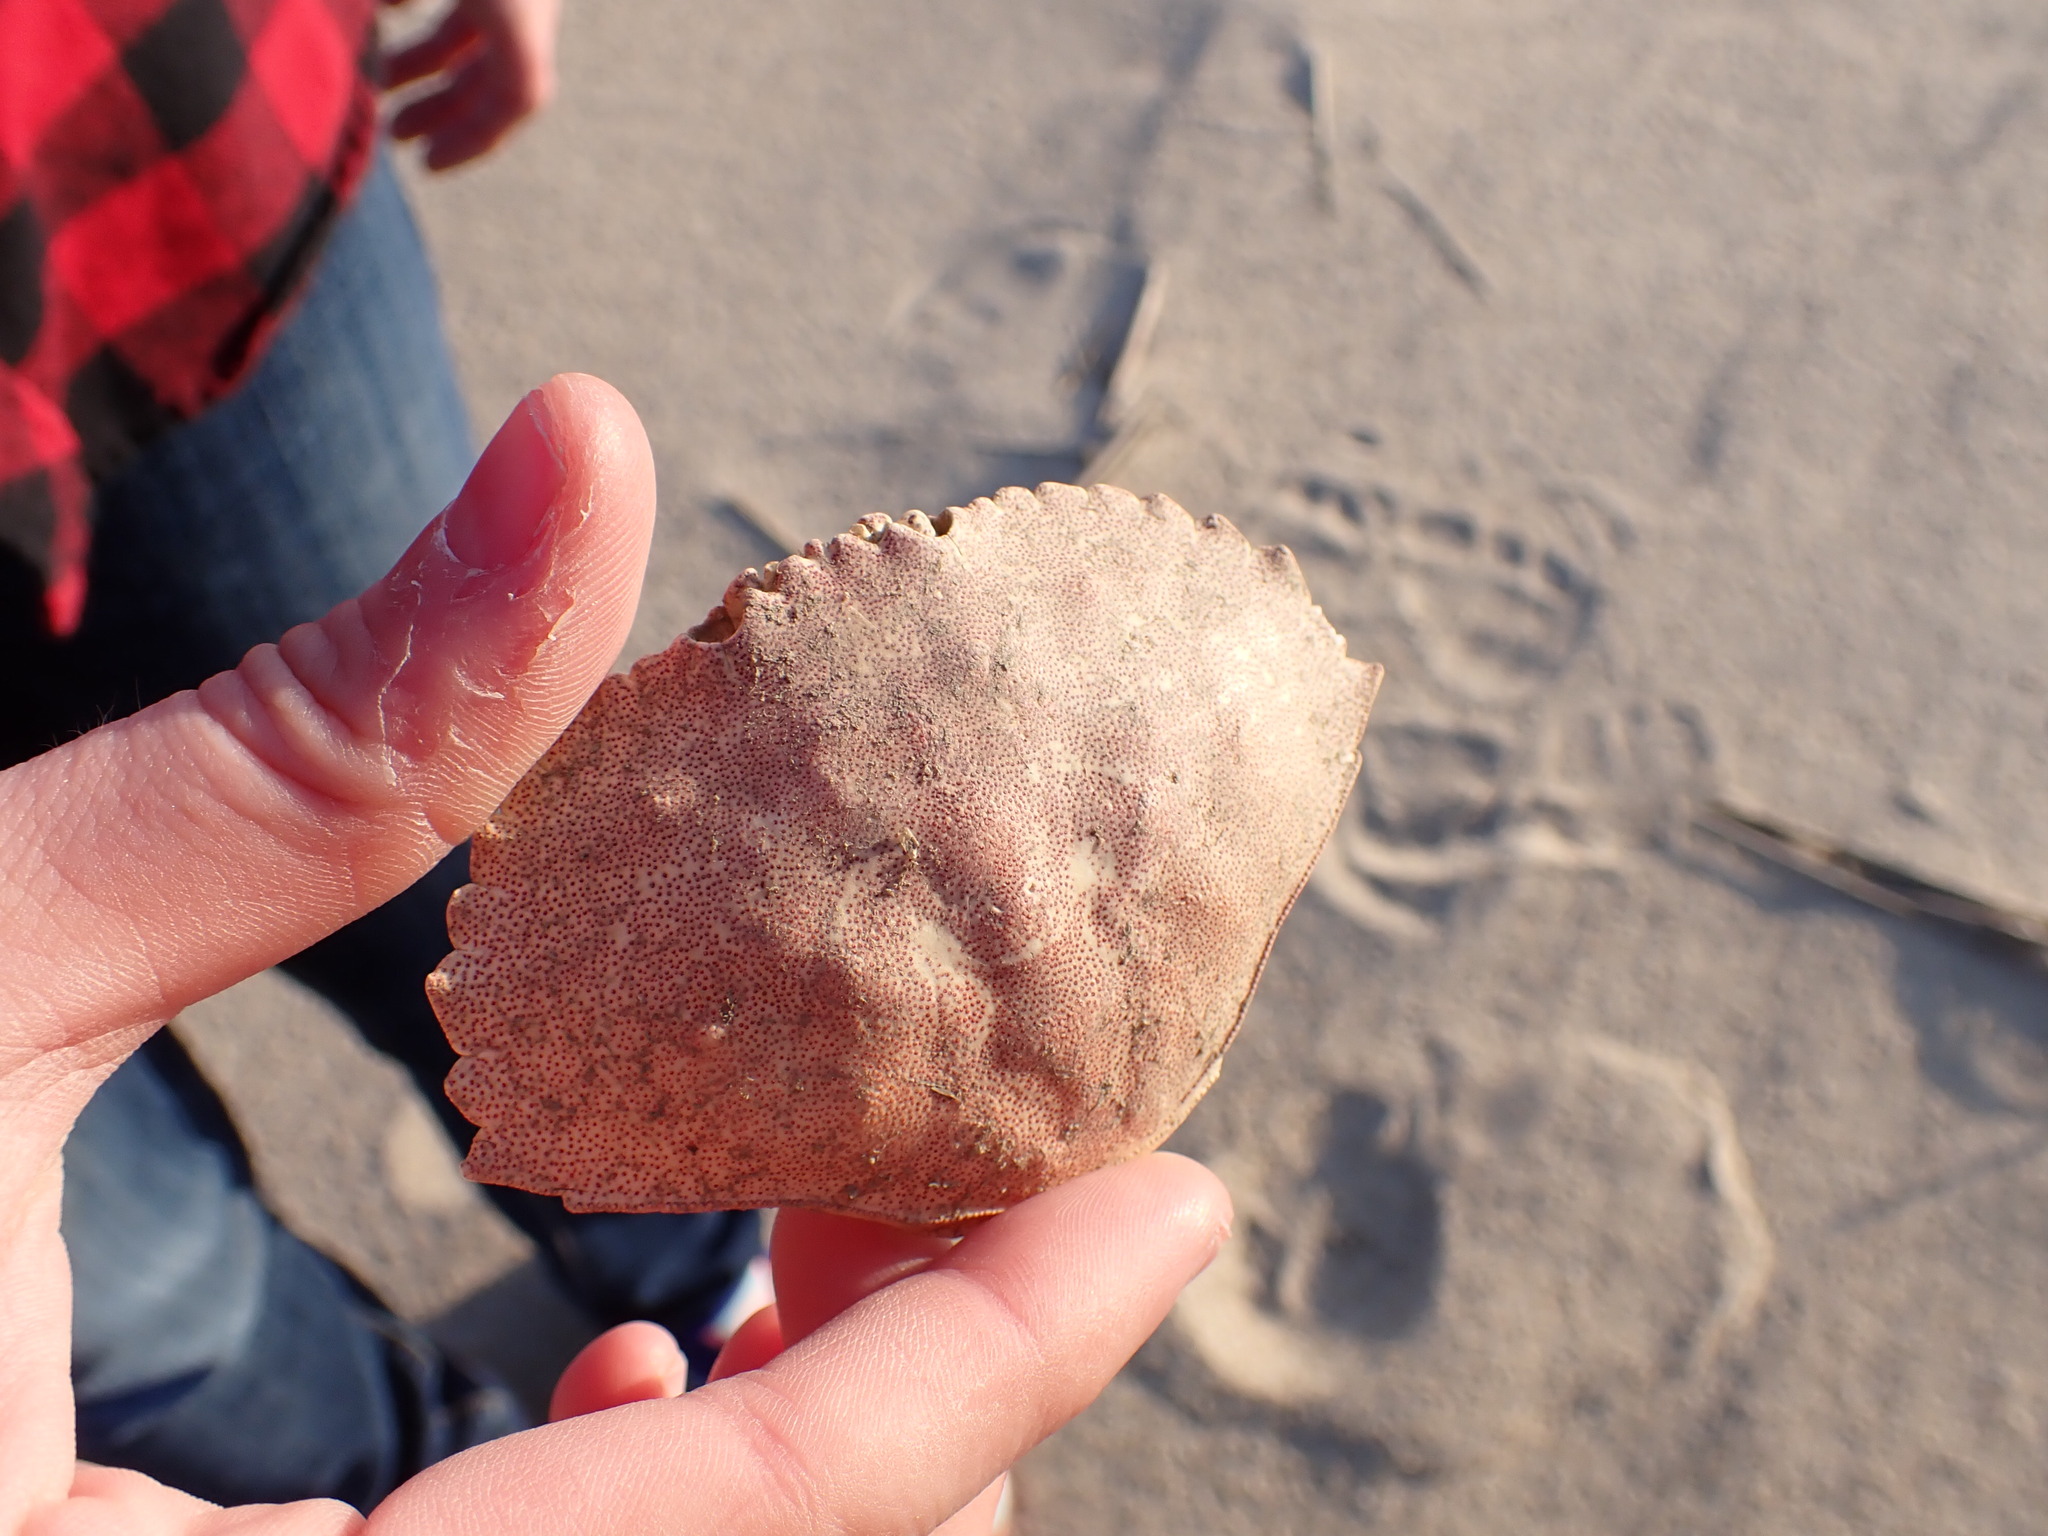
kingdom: Animalia
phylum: Arthropoda
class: Malacostraca
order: Decapoda
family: Cancridae
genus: Cancer
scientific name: Cancer irroratus
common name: Atlantic rock crab
